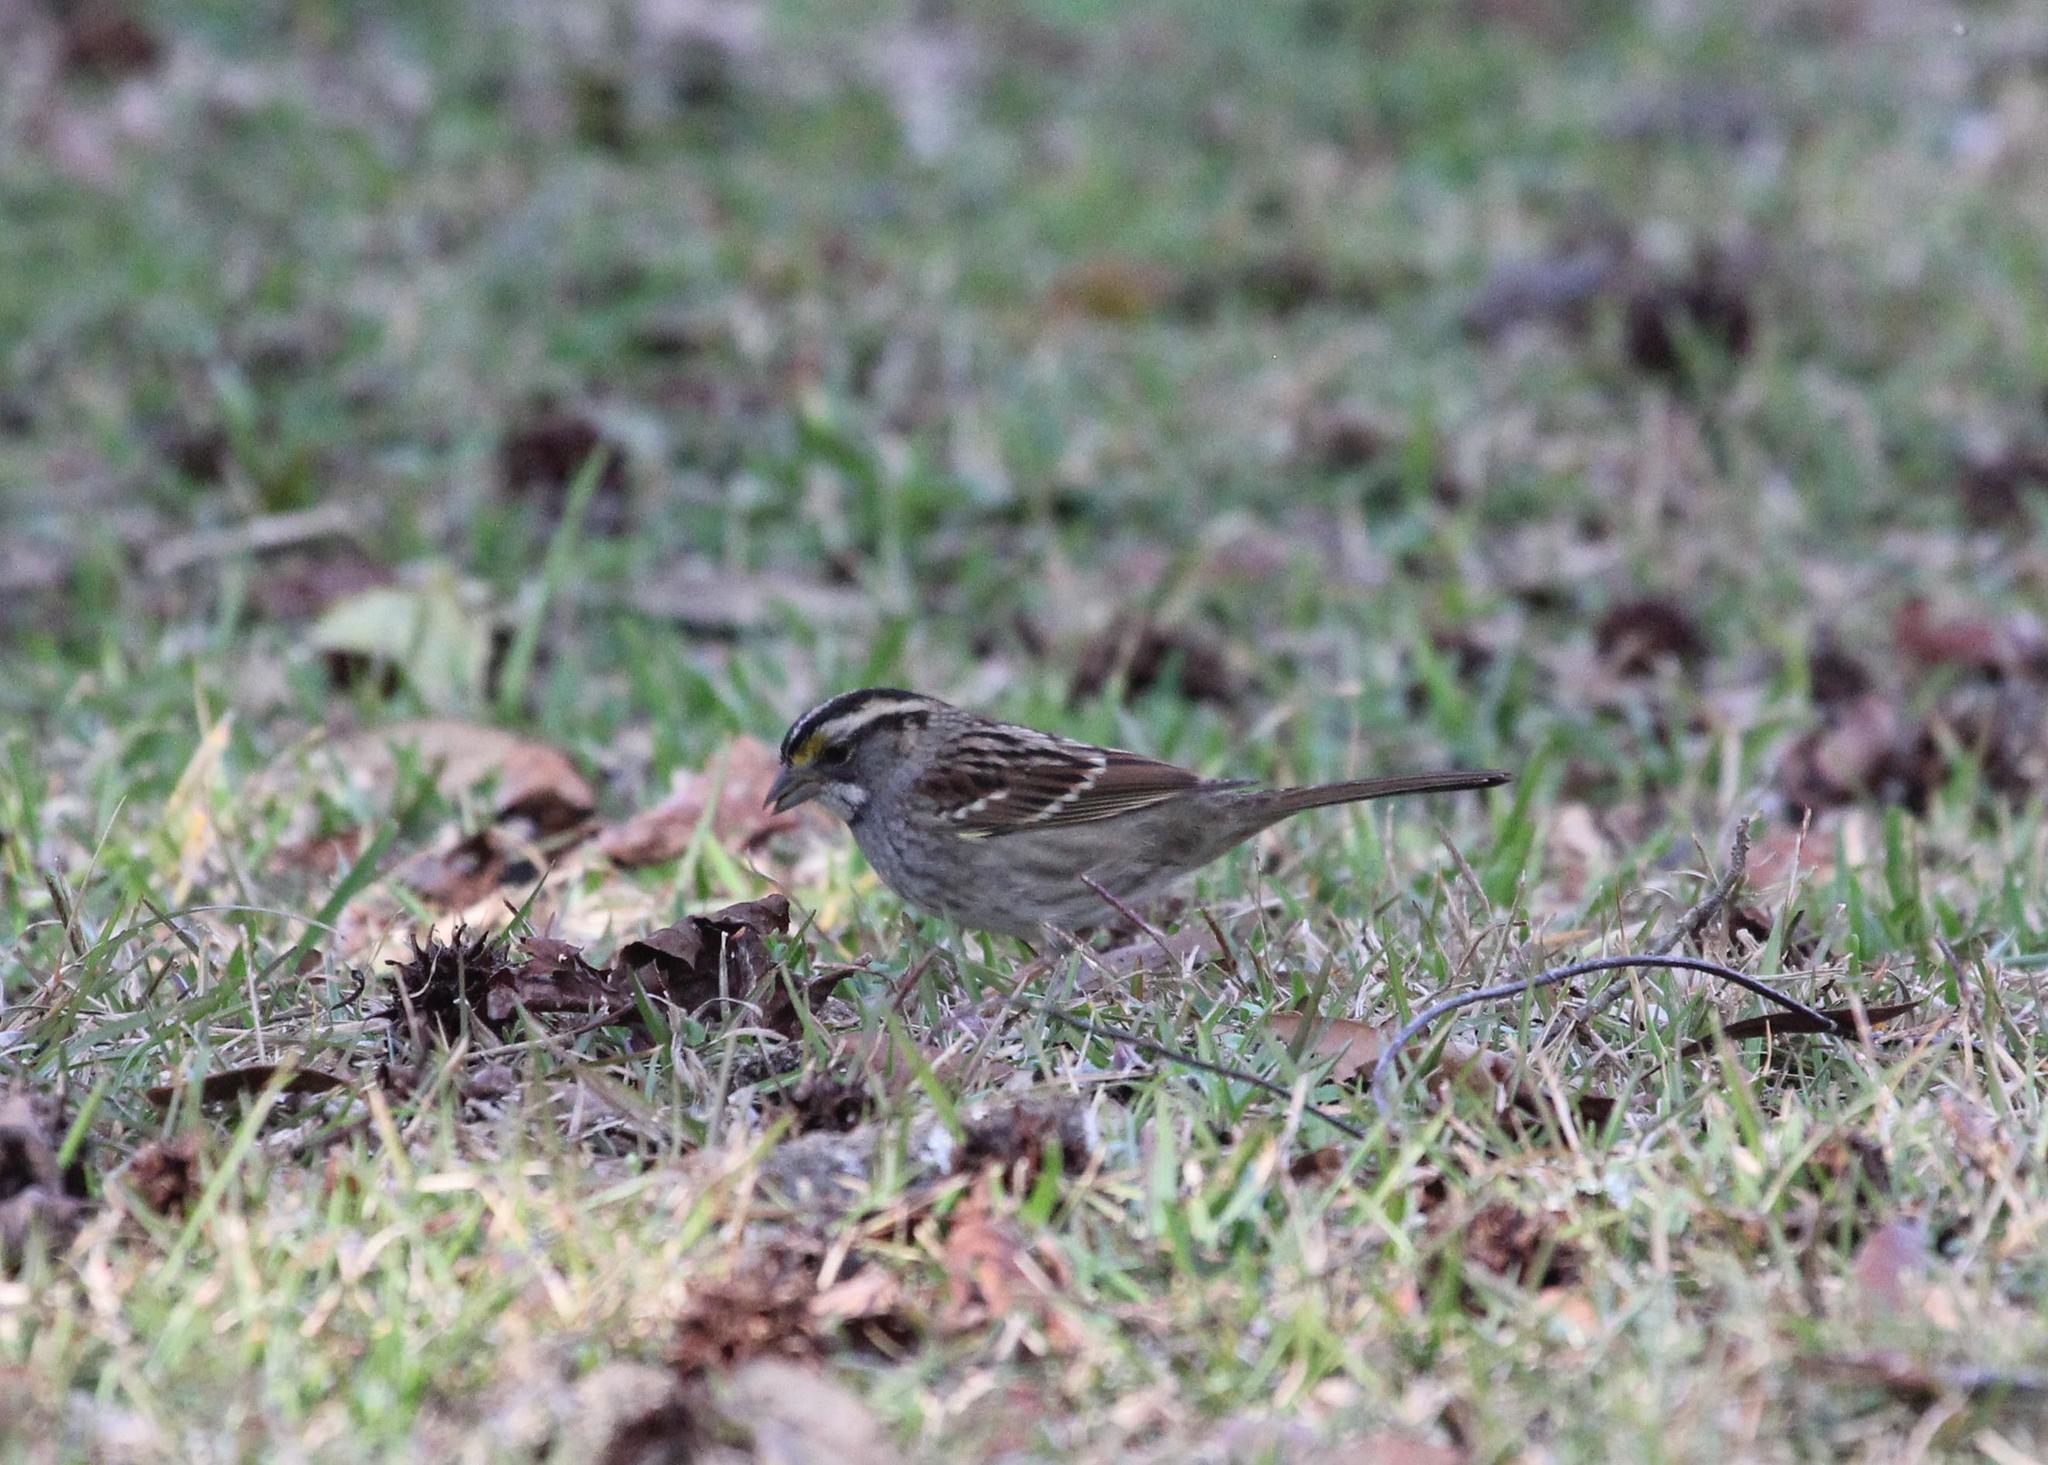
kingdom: Animalia
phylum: Chordata
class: Aves
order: Passeriformes
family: Passerellidae
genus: Zonotrichia
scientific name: Zonotrichia albicollis
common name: White-throated sparrow
